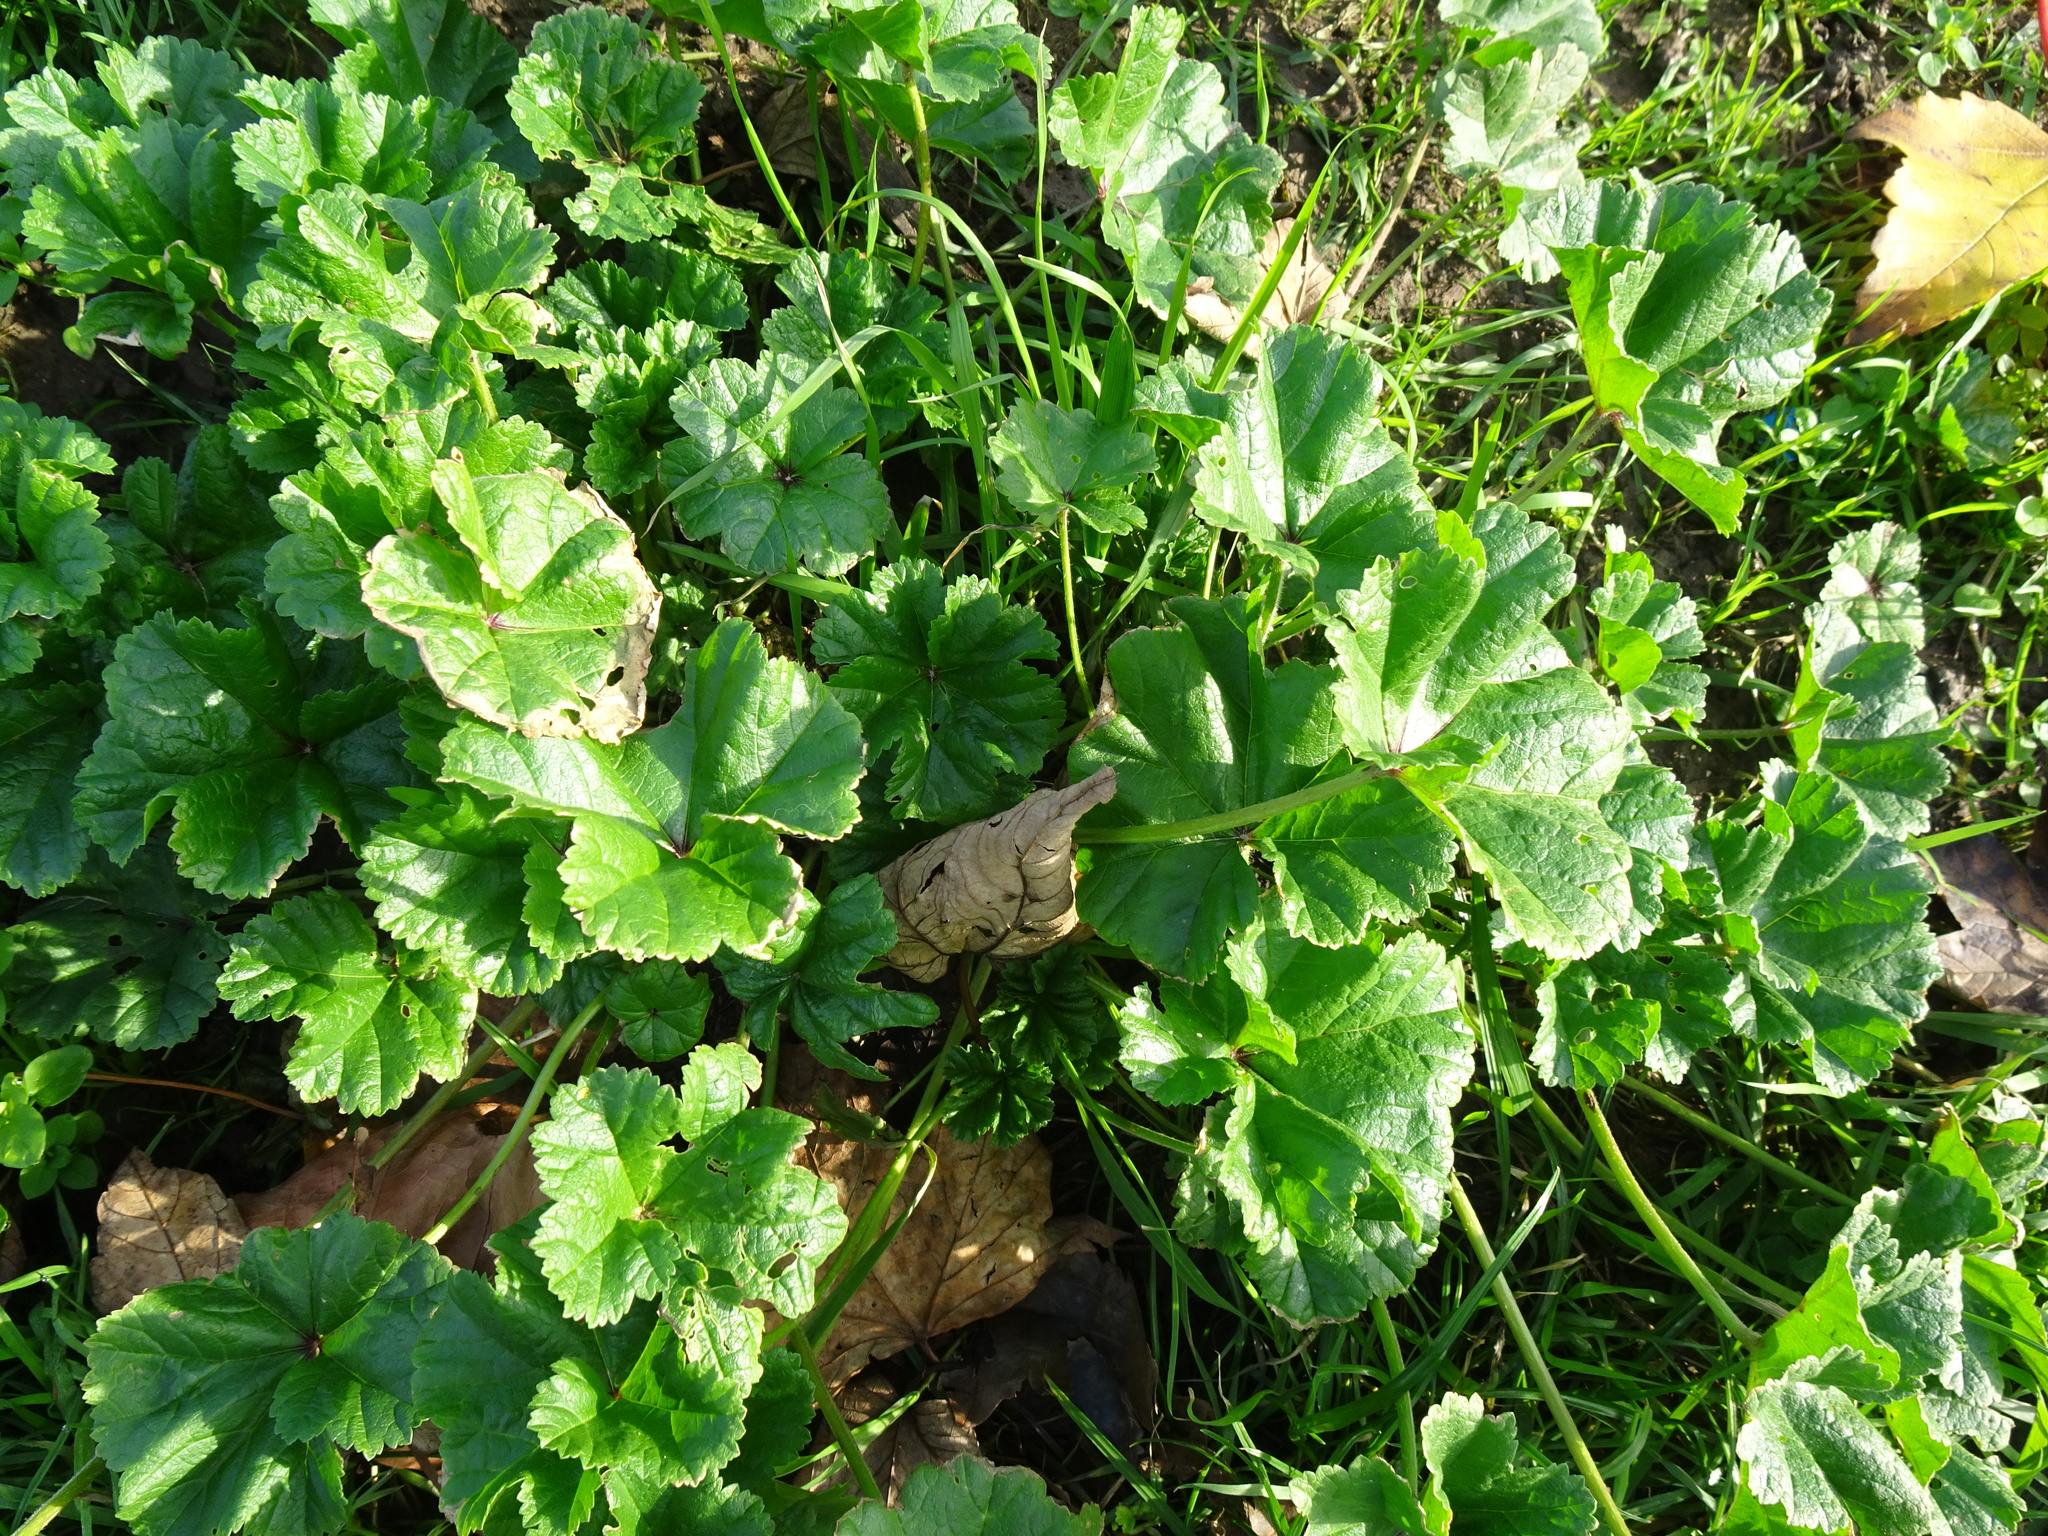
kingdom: Plantae
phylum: Tracheophyta
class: Magnoliopsida
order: Malvales
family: Malvaceae
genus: Malva
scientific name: Malva sylvestris
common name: Common mallow
